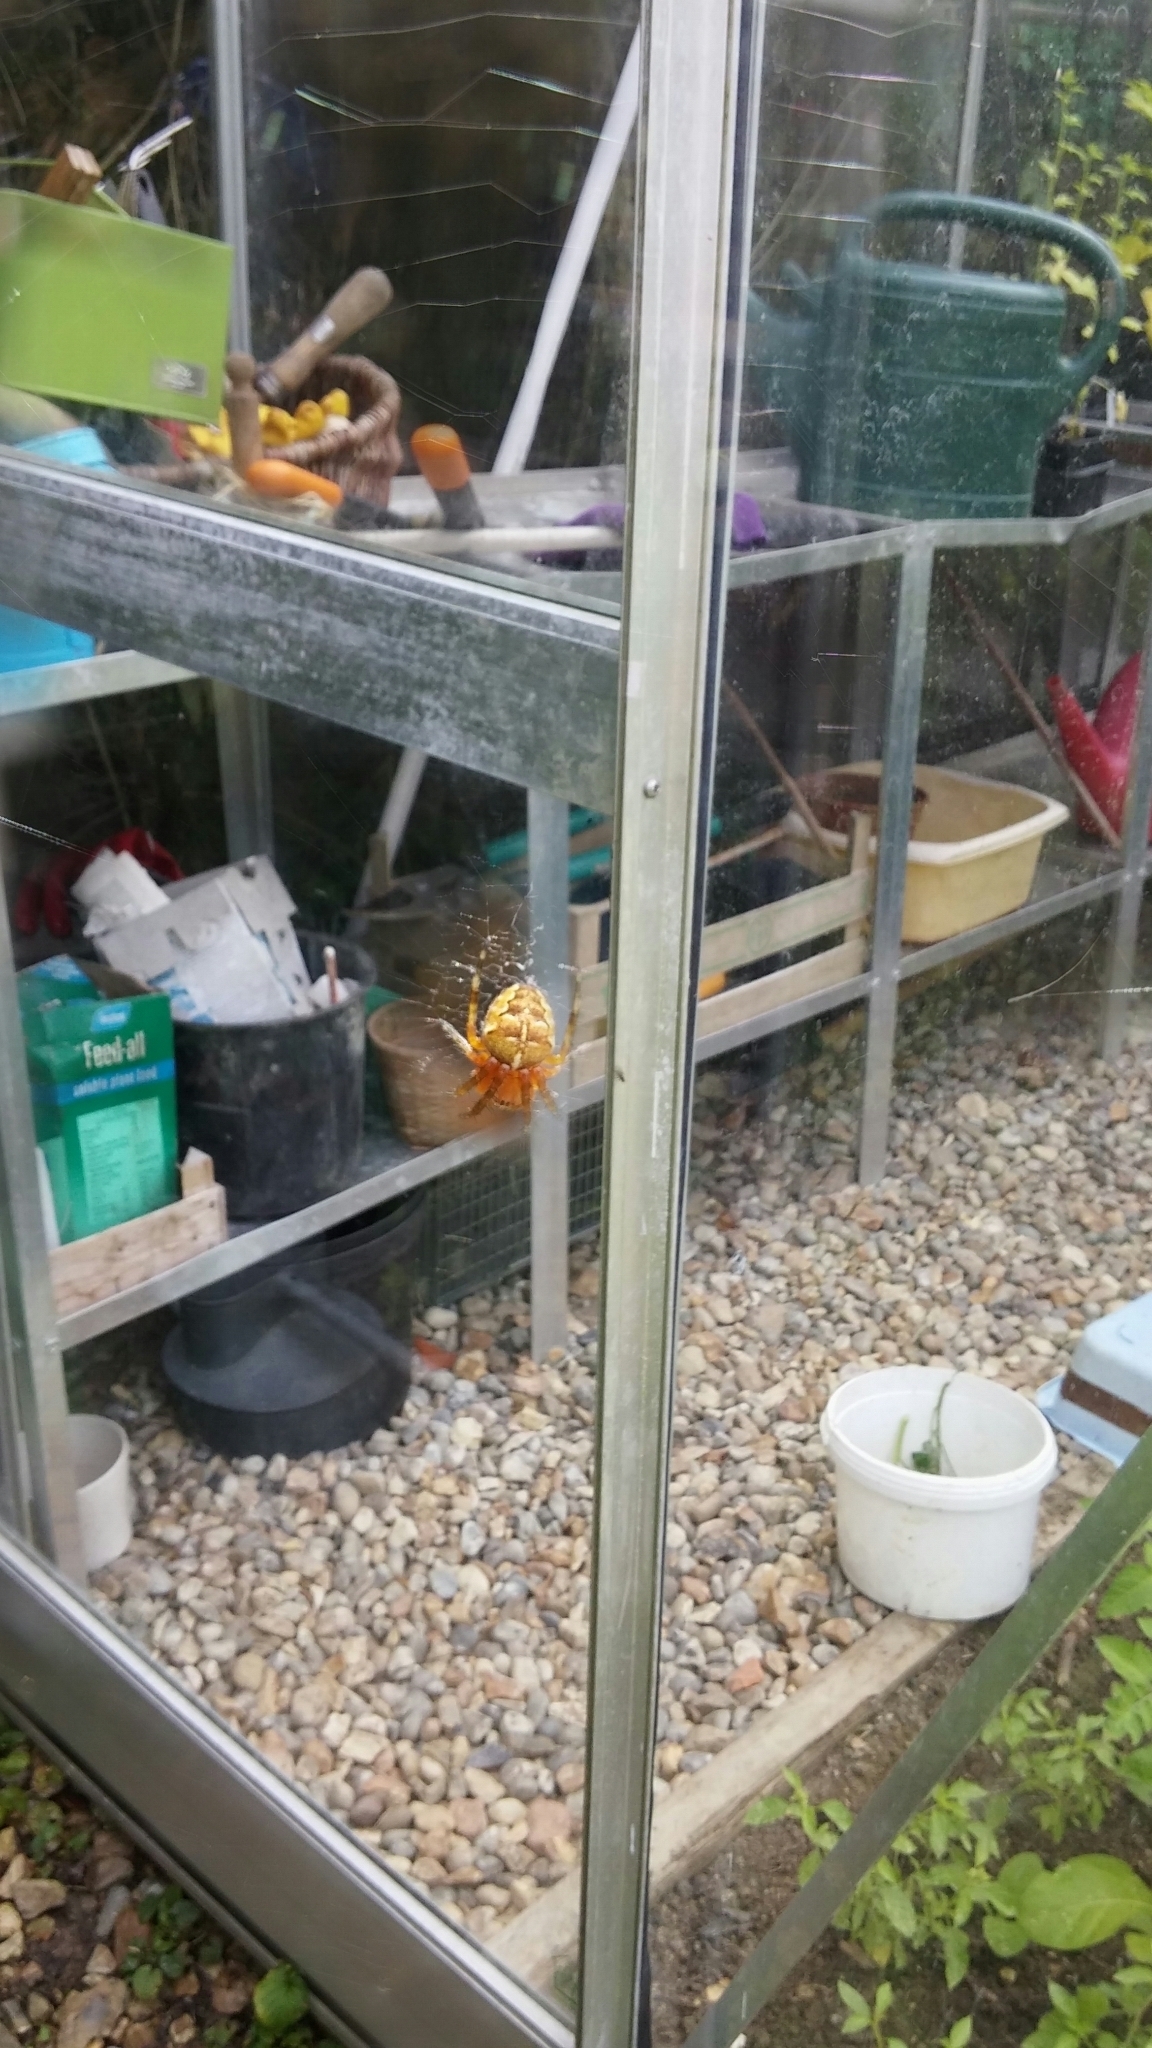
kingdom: Animalia
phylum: Arthropoda
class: Arachnida
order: Araneae
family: Araneidae
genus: Araneus
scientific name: Araneus diadematus
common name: Cross orbweaver
